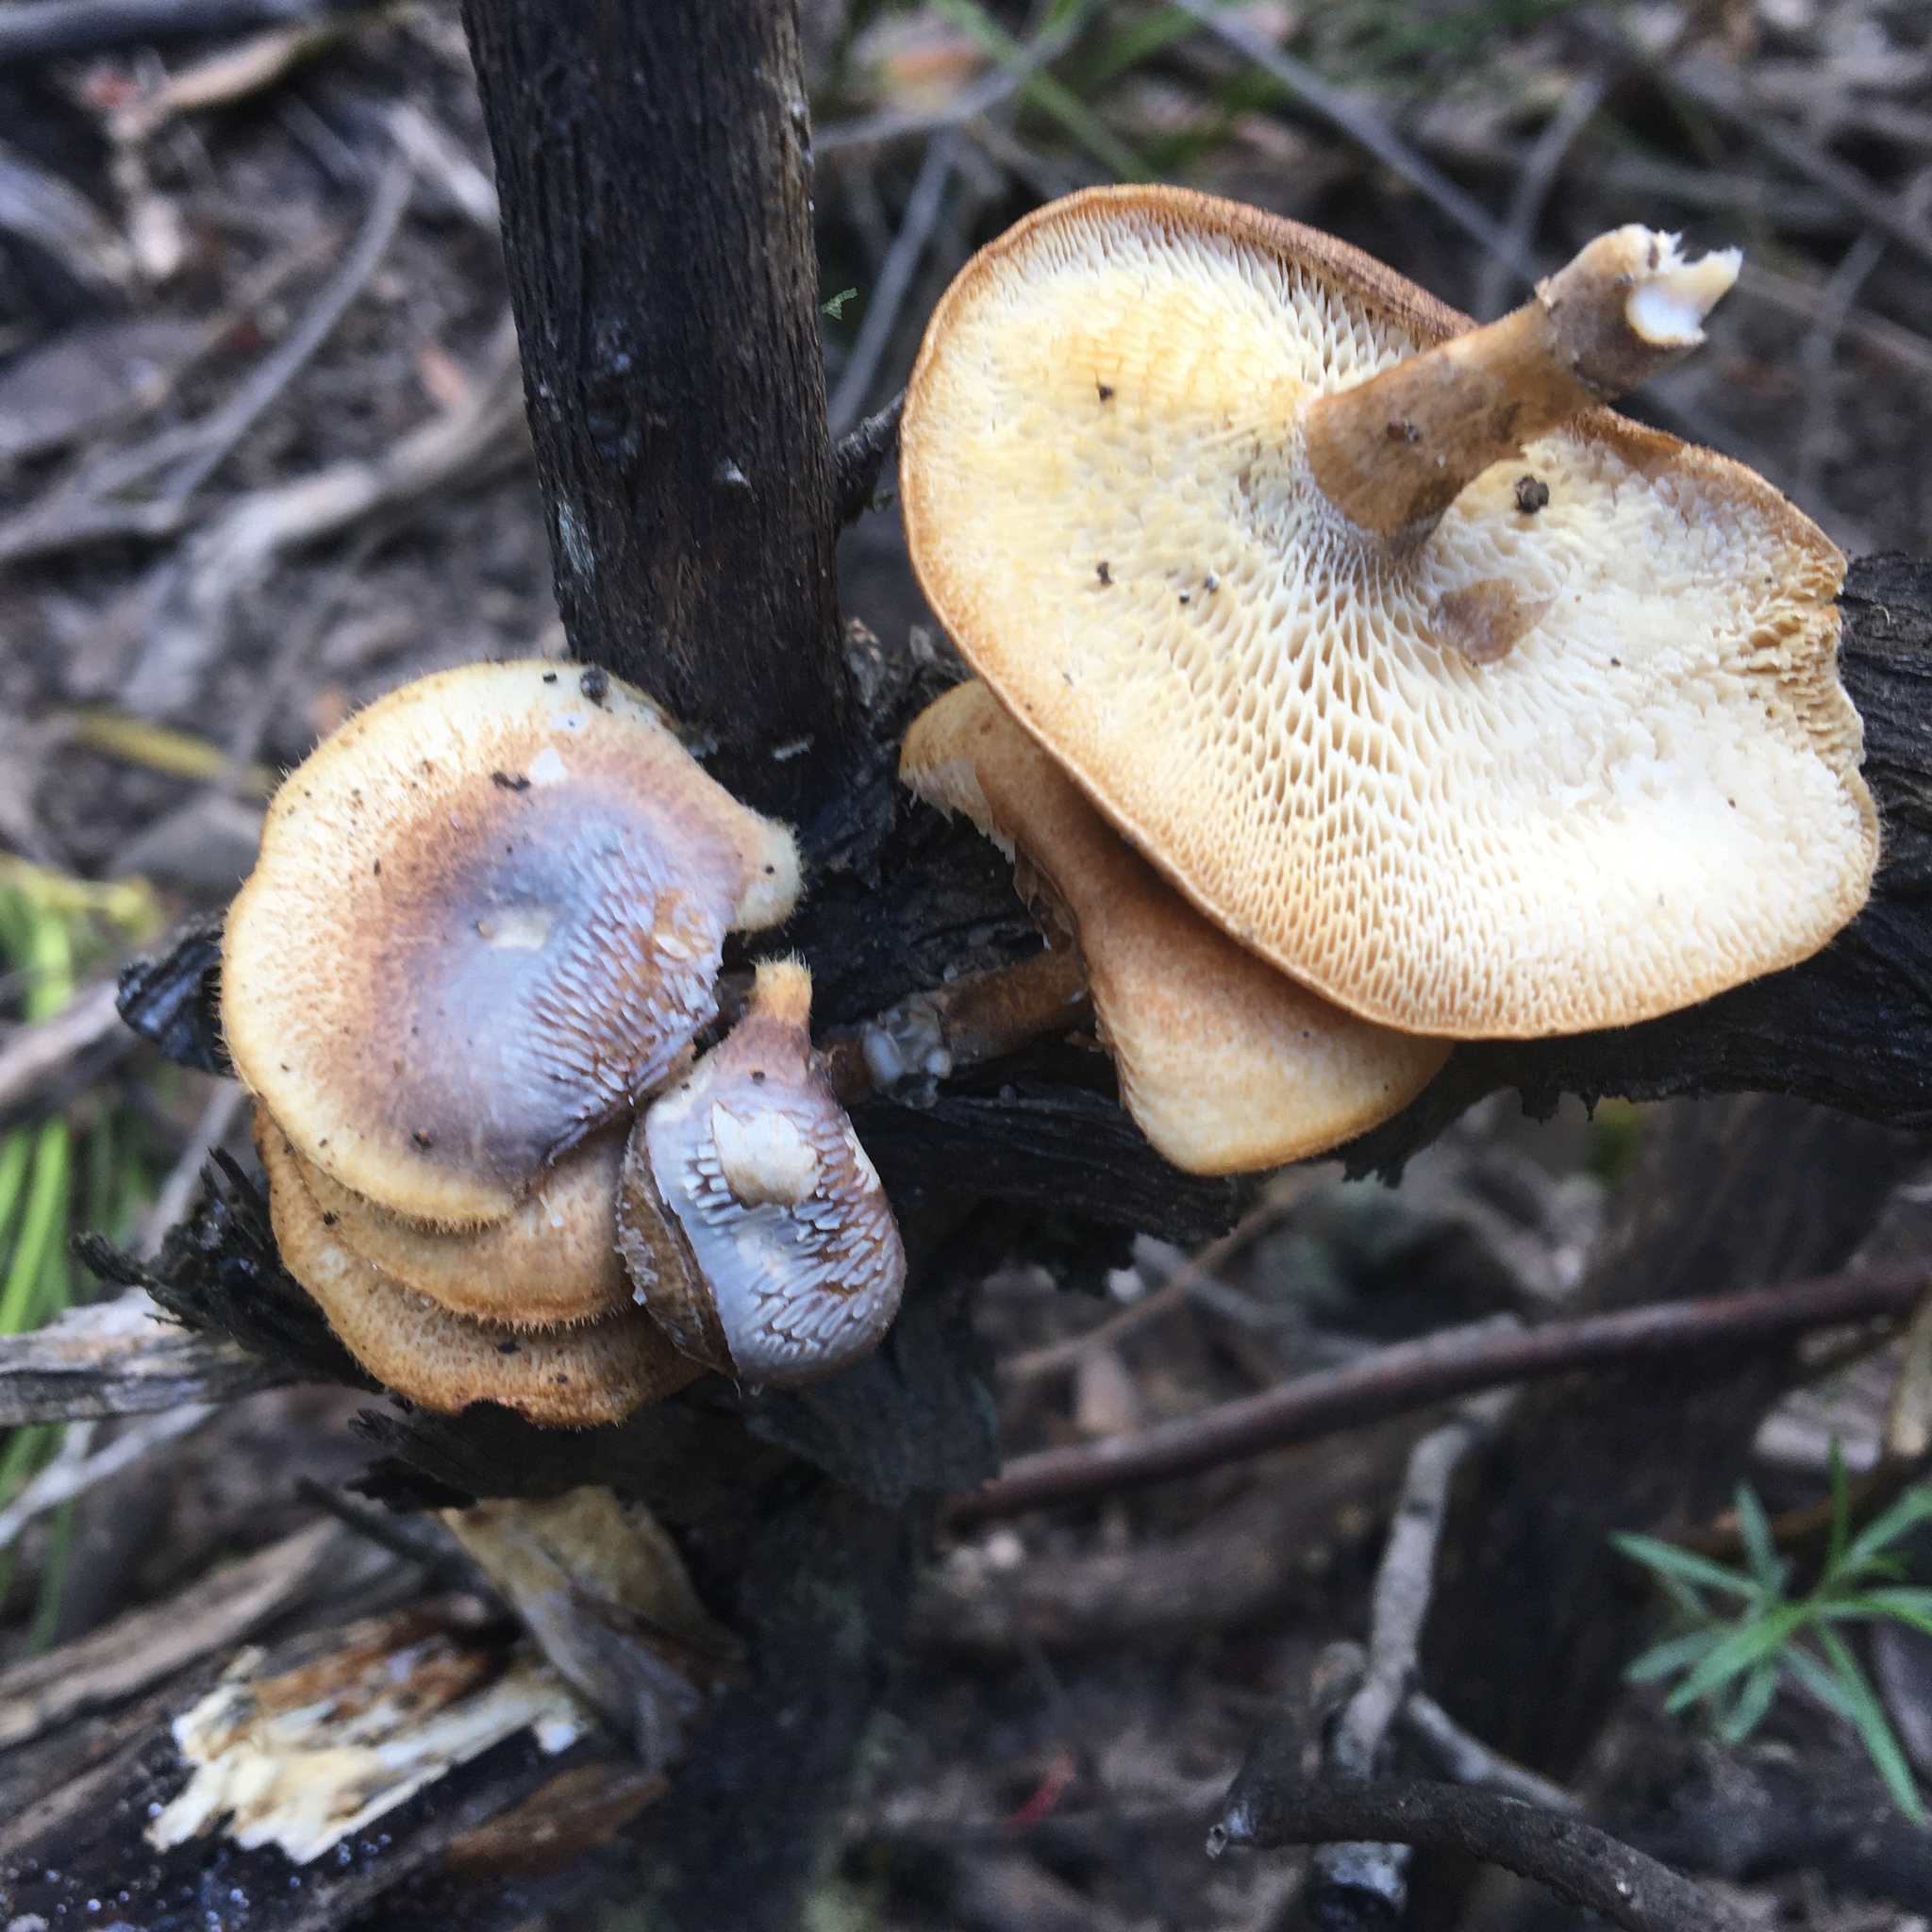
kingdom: Fungi
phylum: Basidiomycota
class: Agaricomycetes
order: Polyporales
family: Polyporaceae
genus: Lentinus
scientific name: Lentinus arcularius
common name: Spring polypore
